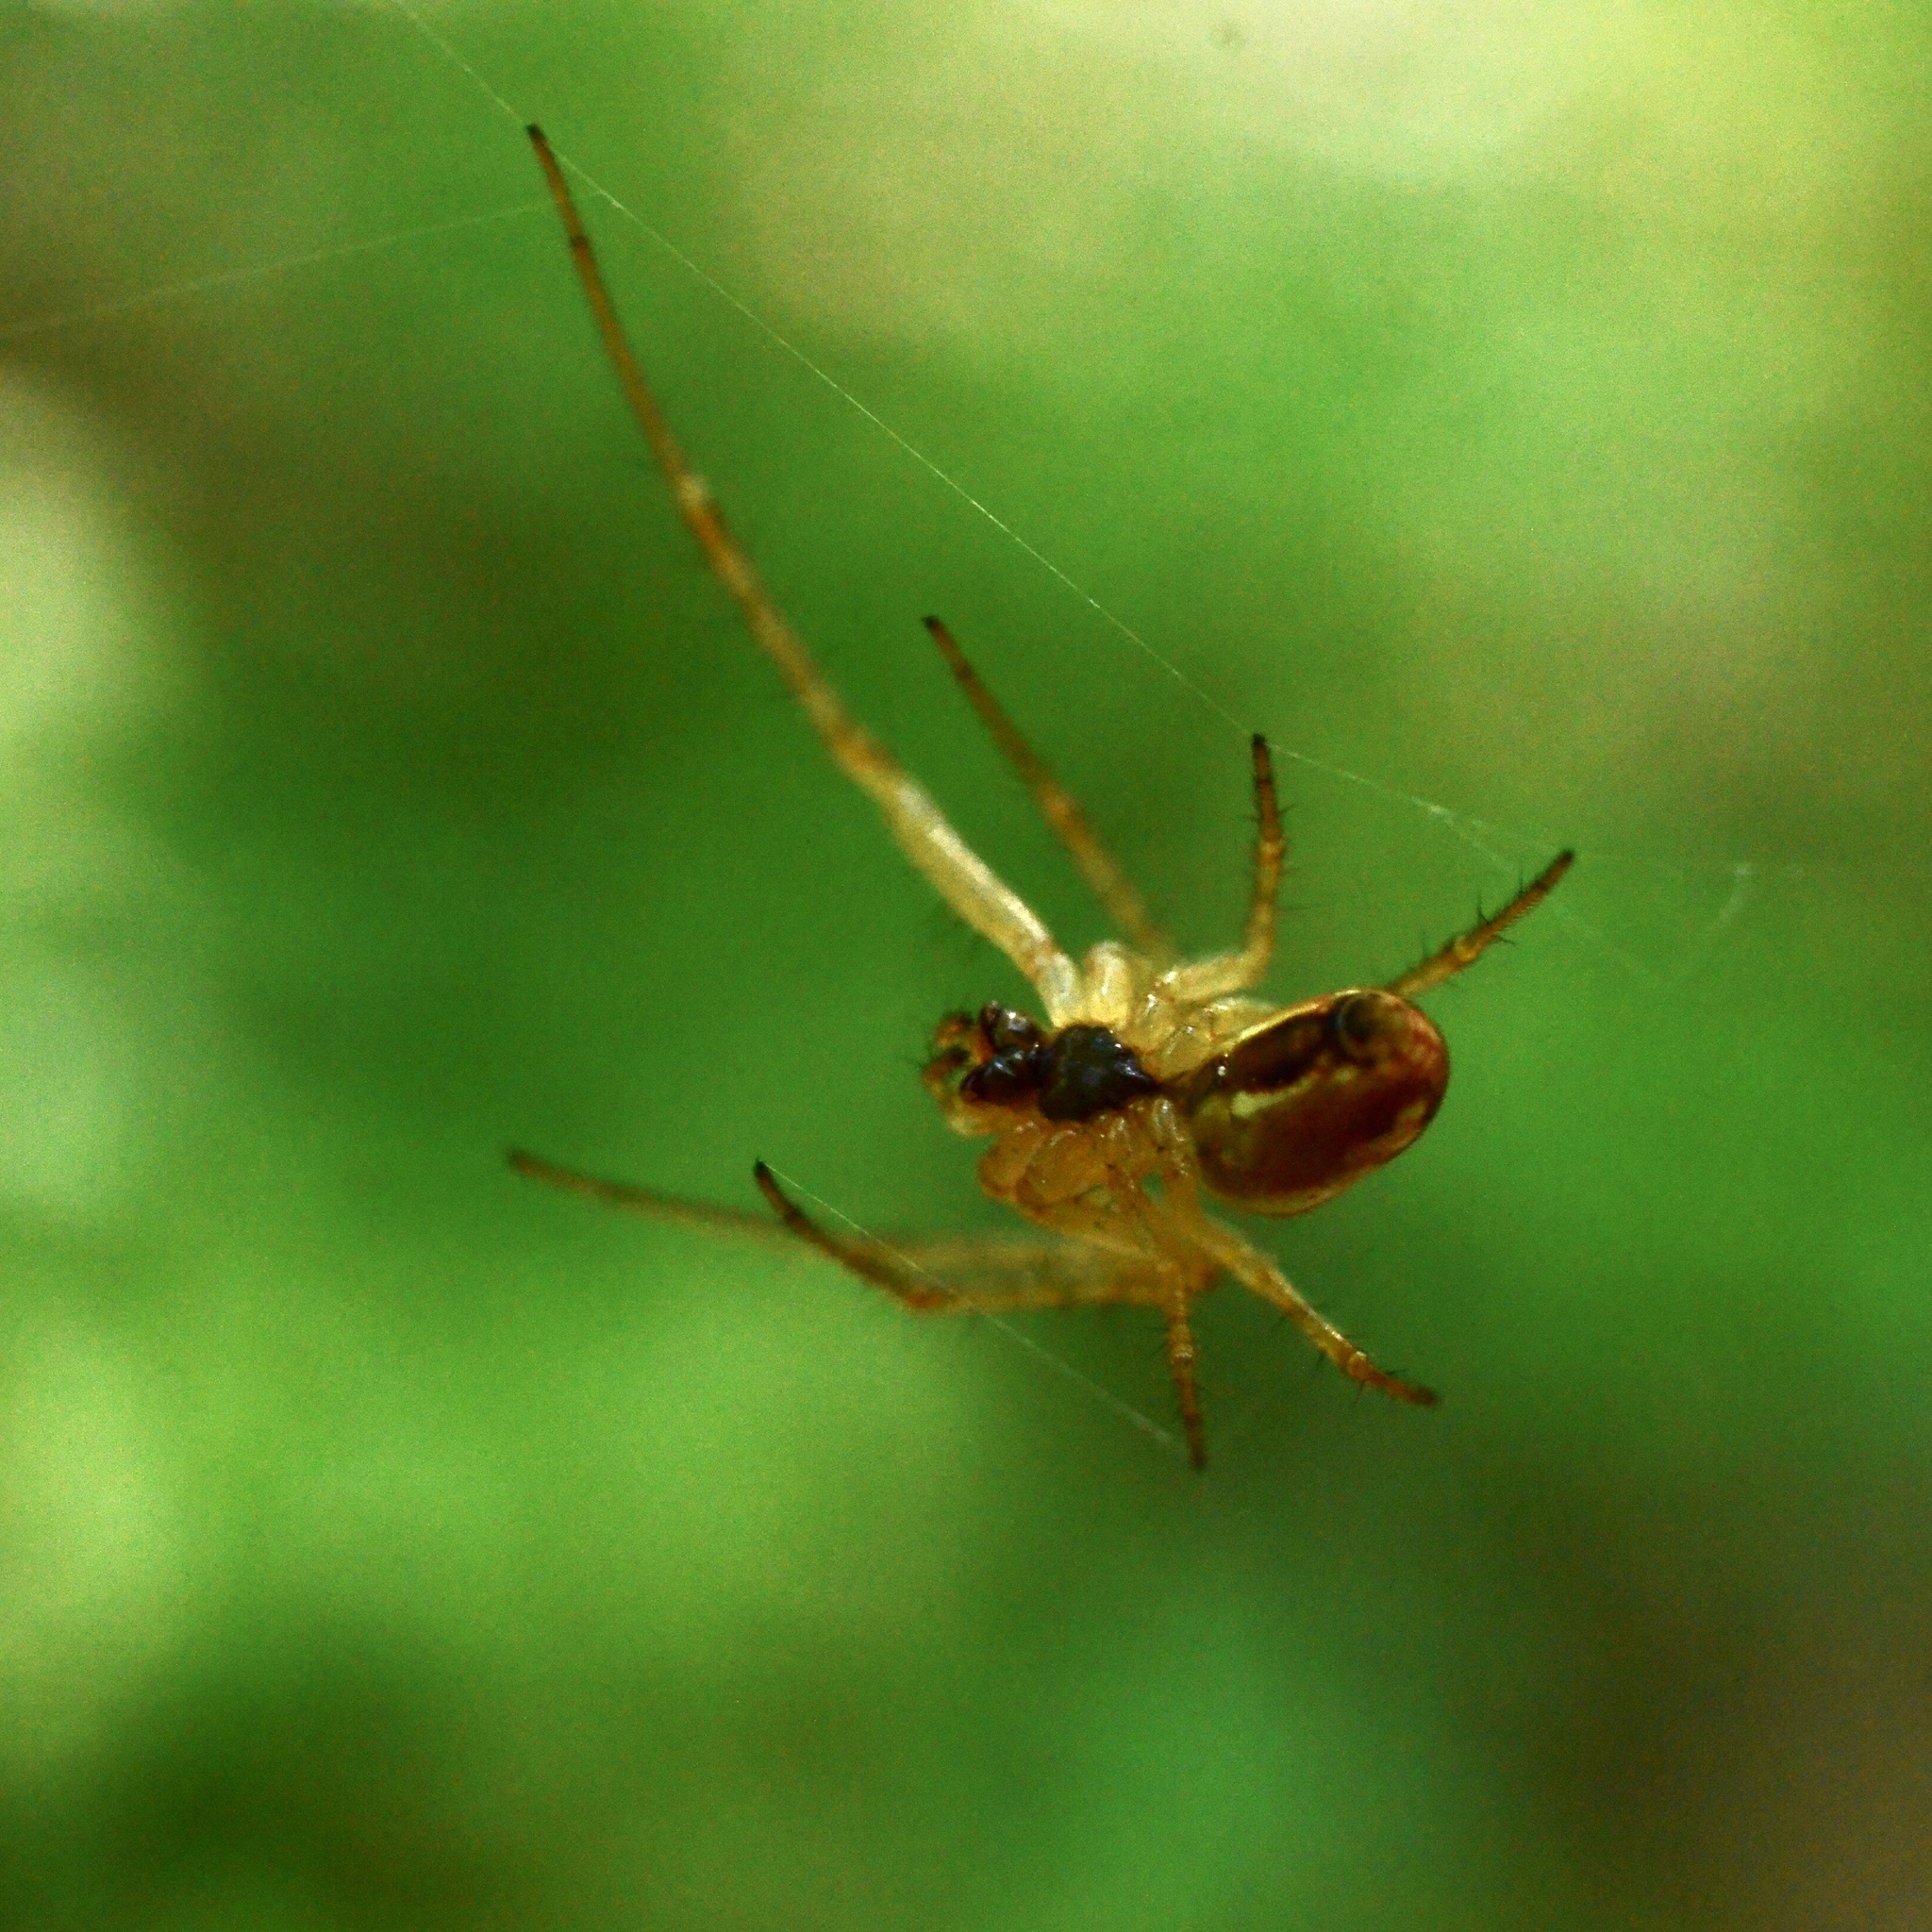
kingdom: Animalia
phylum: Arthropoda
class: Arachnida
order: Araneae
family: Tetragnathidae
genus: Metellina
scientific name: Metellina
